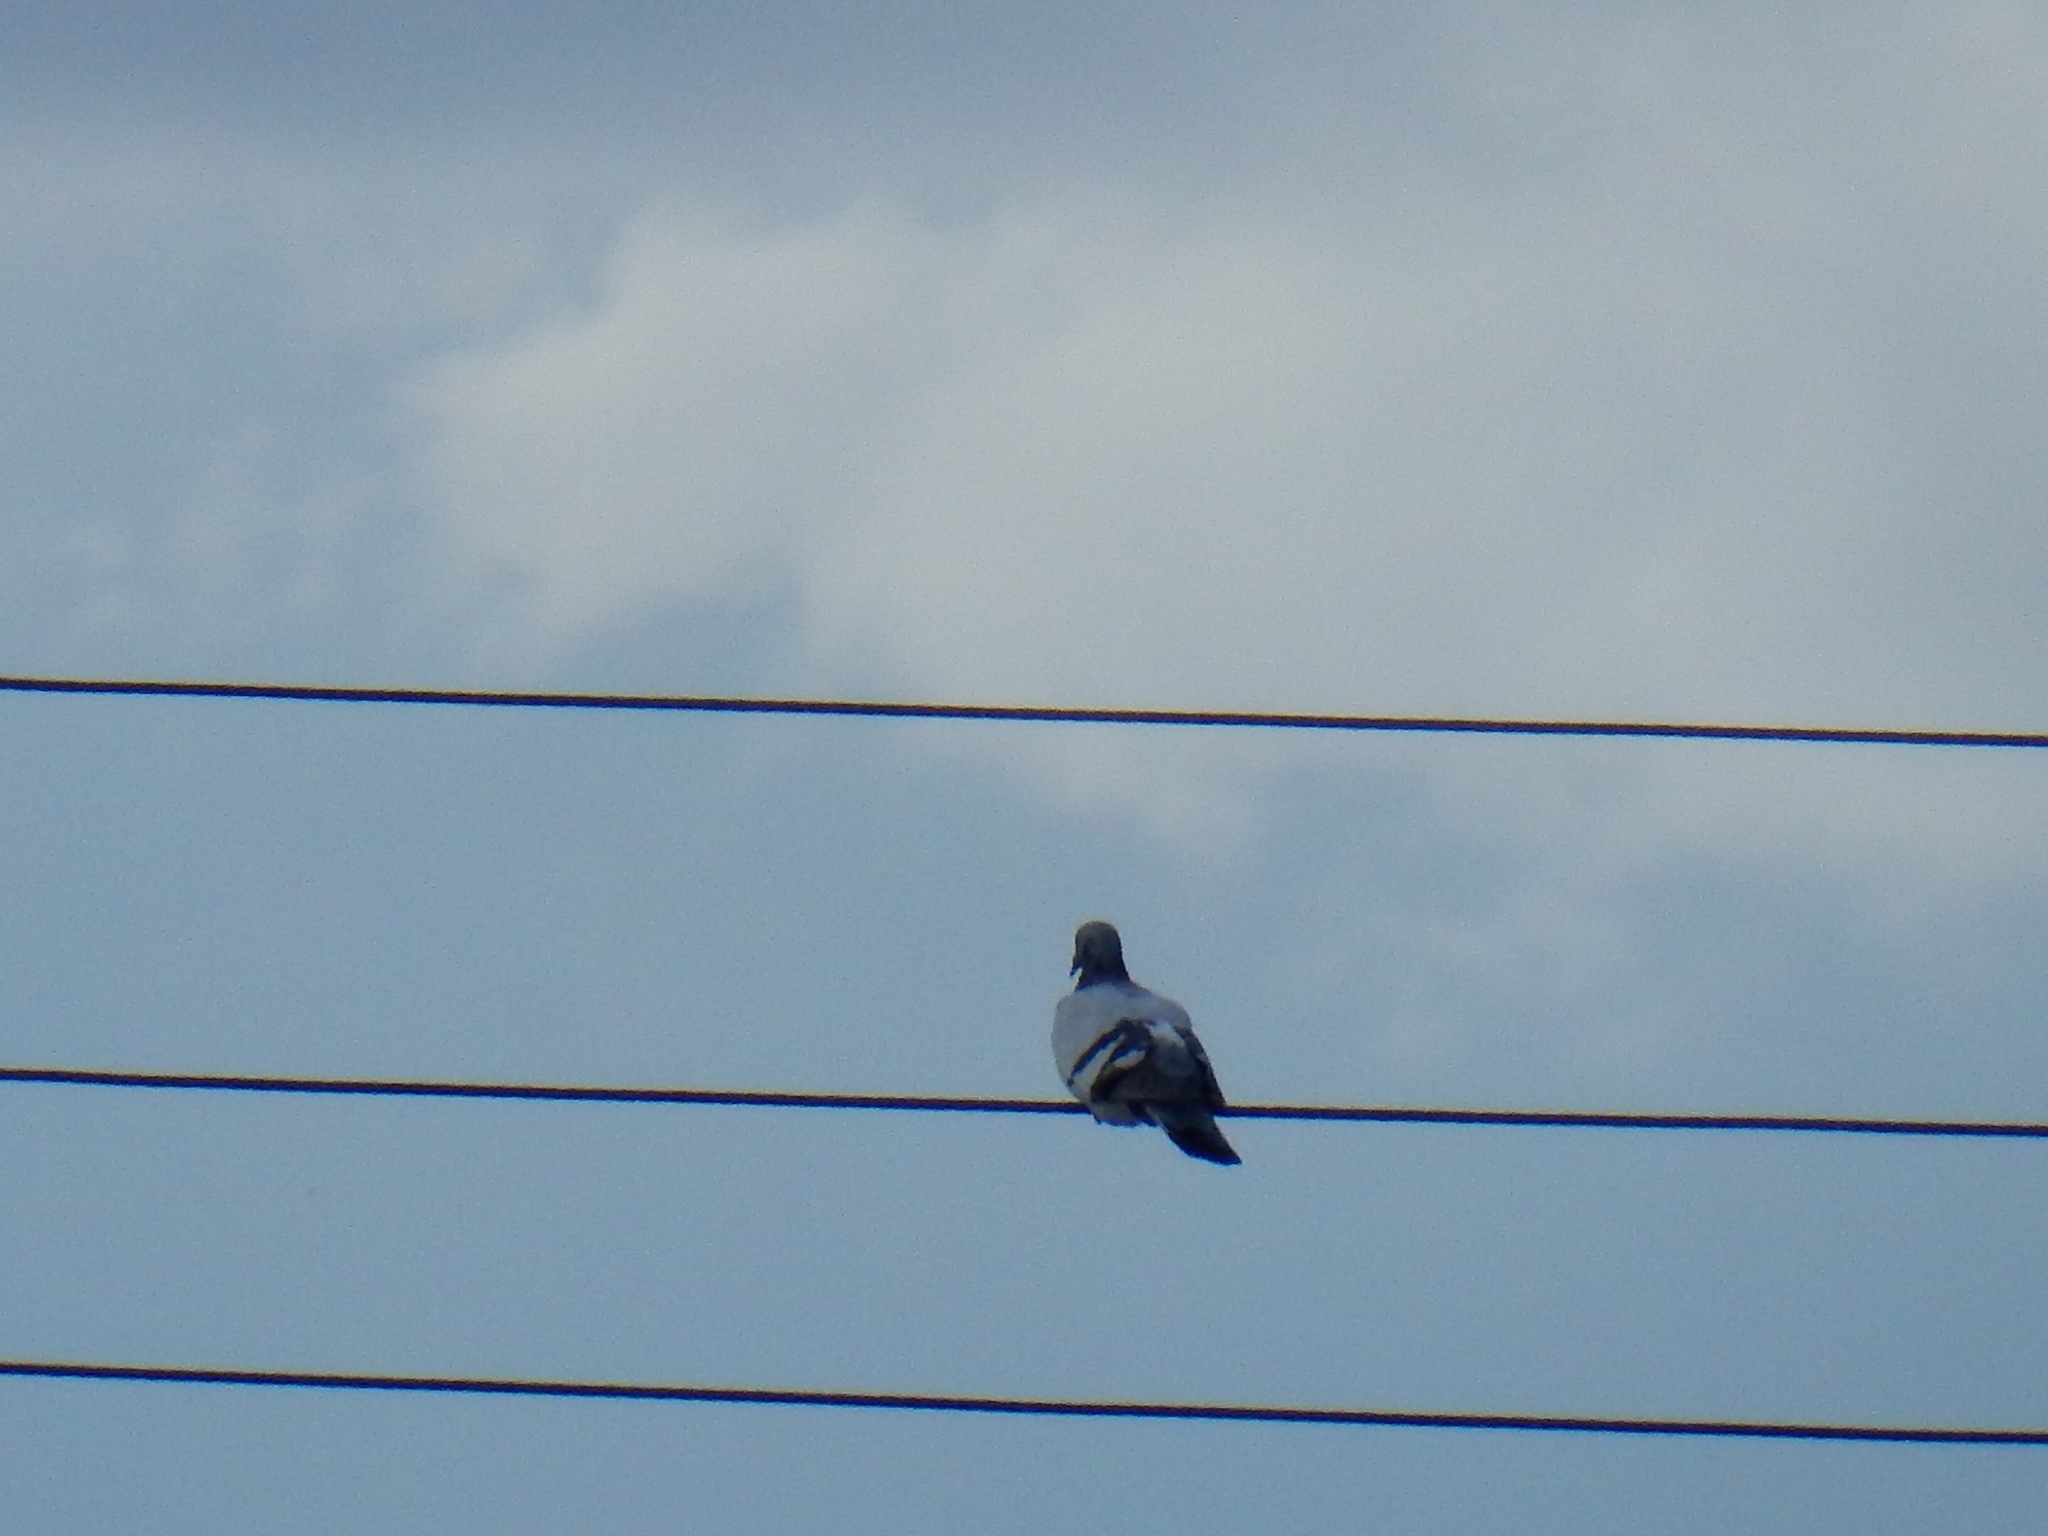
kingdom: Animalia
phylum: Chordata
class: Aves
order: Columbiformes
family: Columbidae
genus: Columba
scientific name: Columba livia
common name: Rock pigeon
